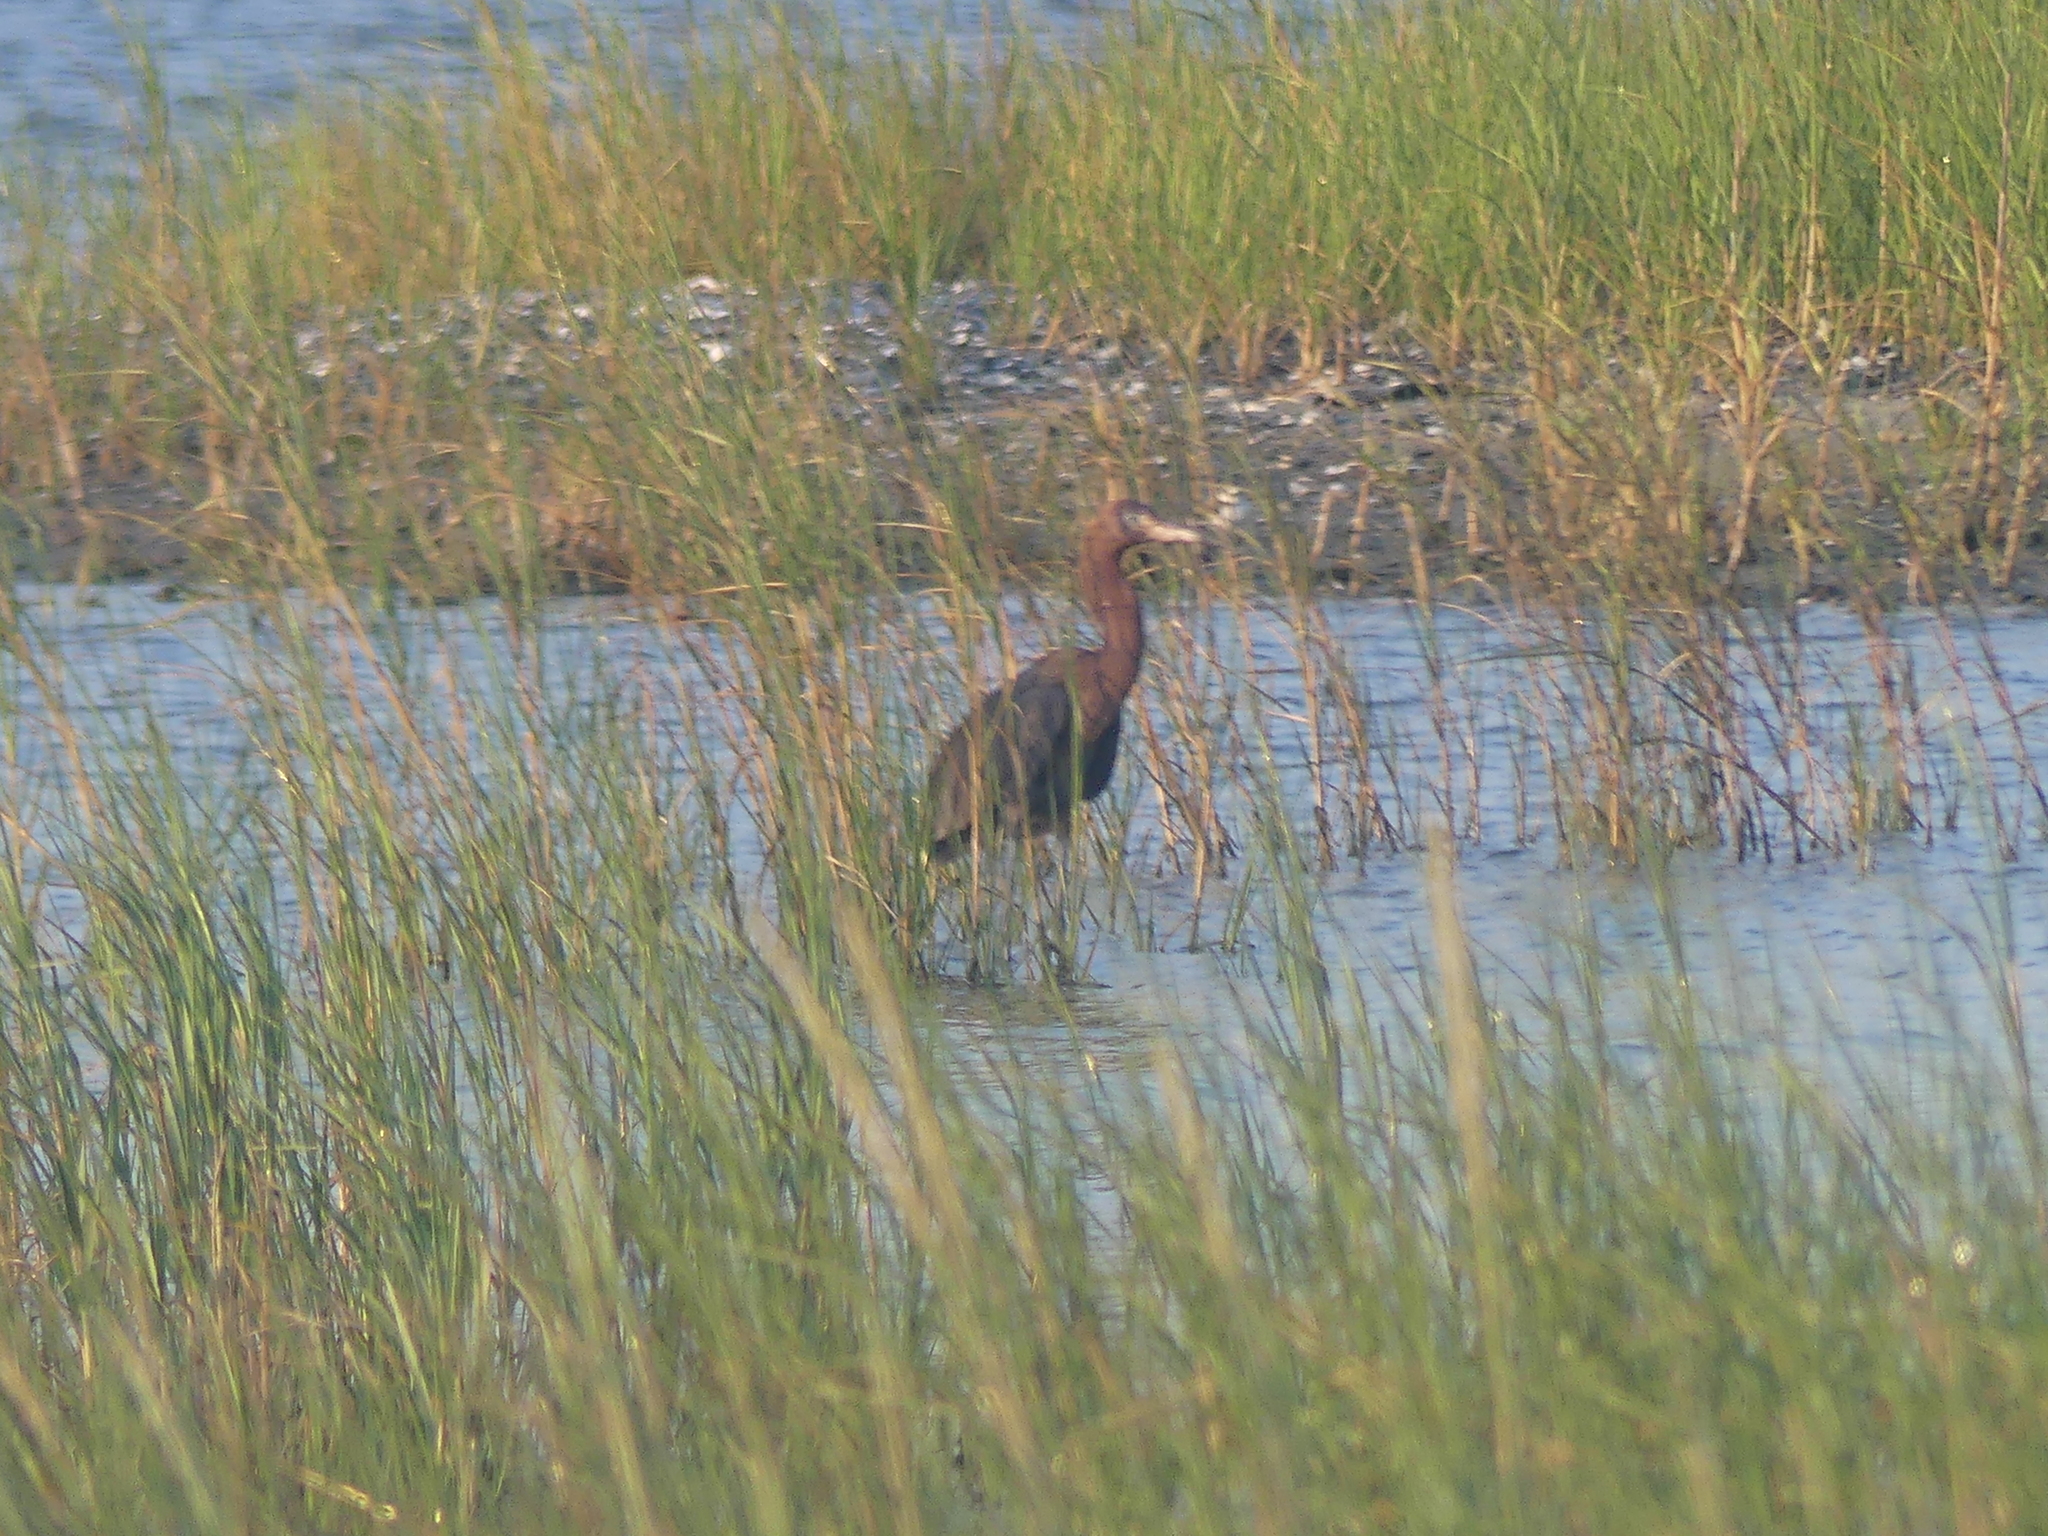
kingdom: Animalia
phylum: Chordata
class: Aves
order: Pelecaniformes
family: Ardeidae
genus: Egretta
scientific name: Egretta rufescens
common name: Reddish egret
